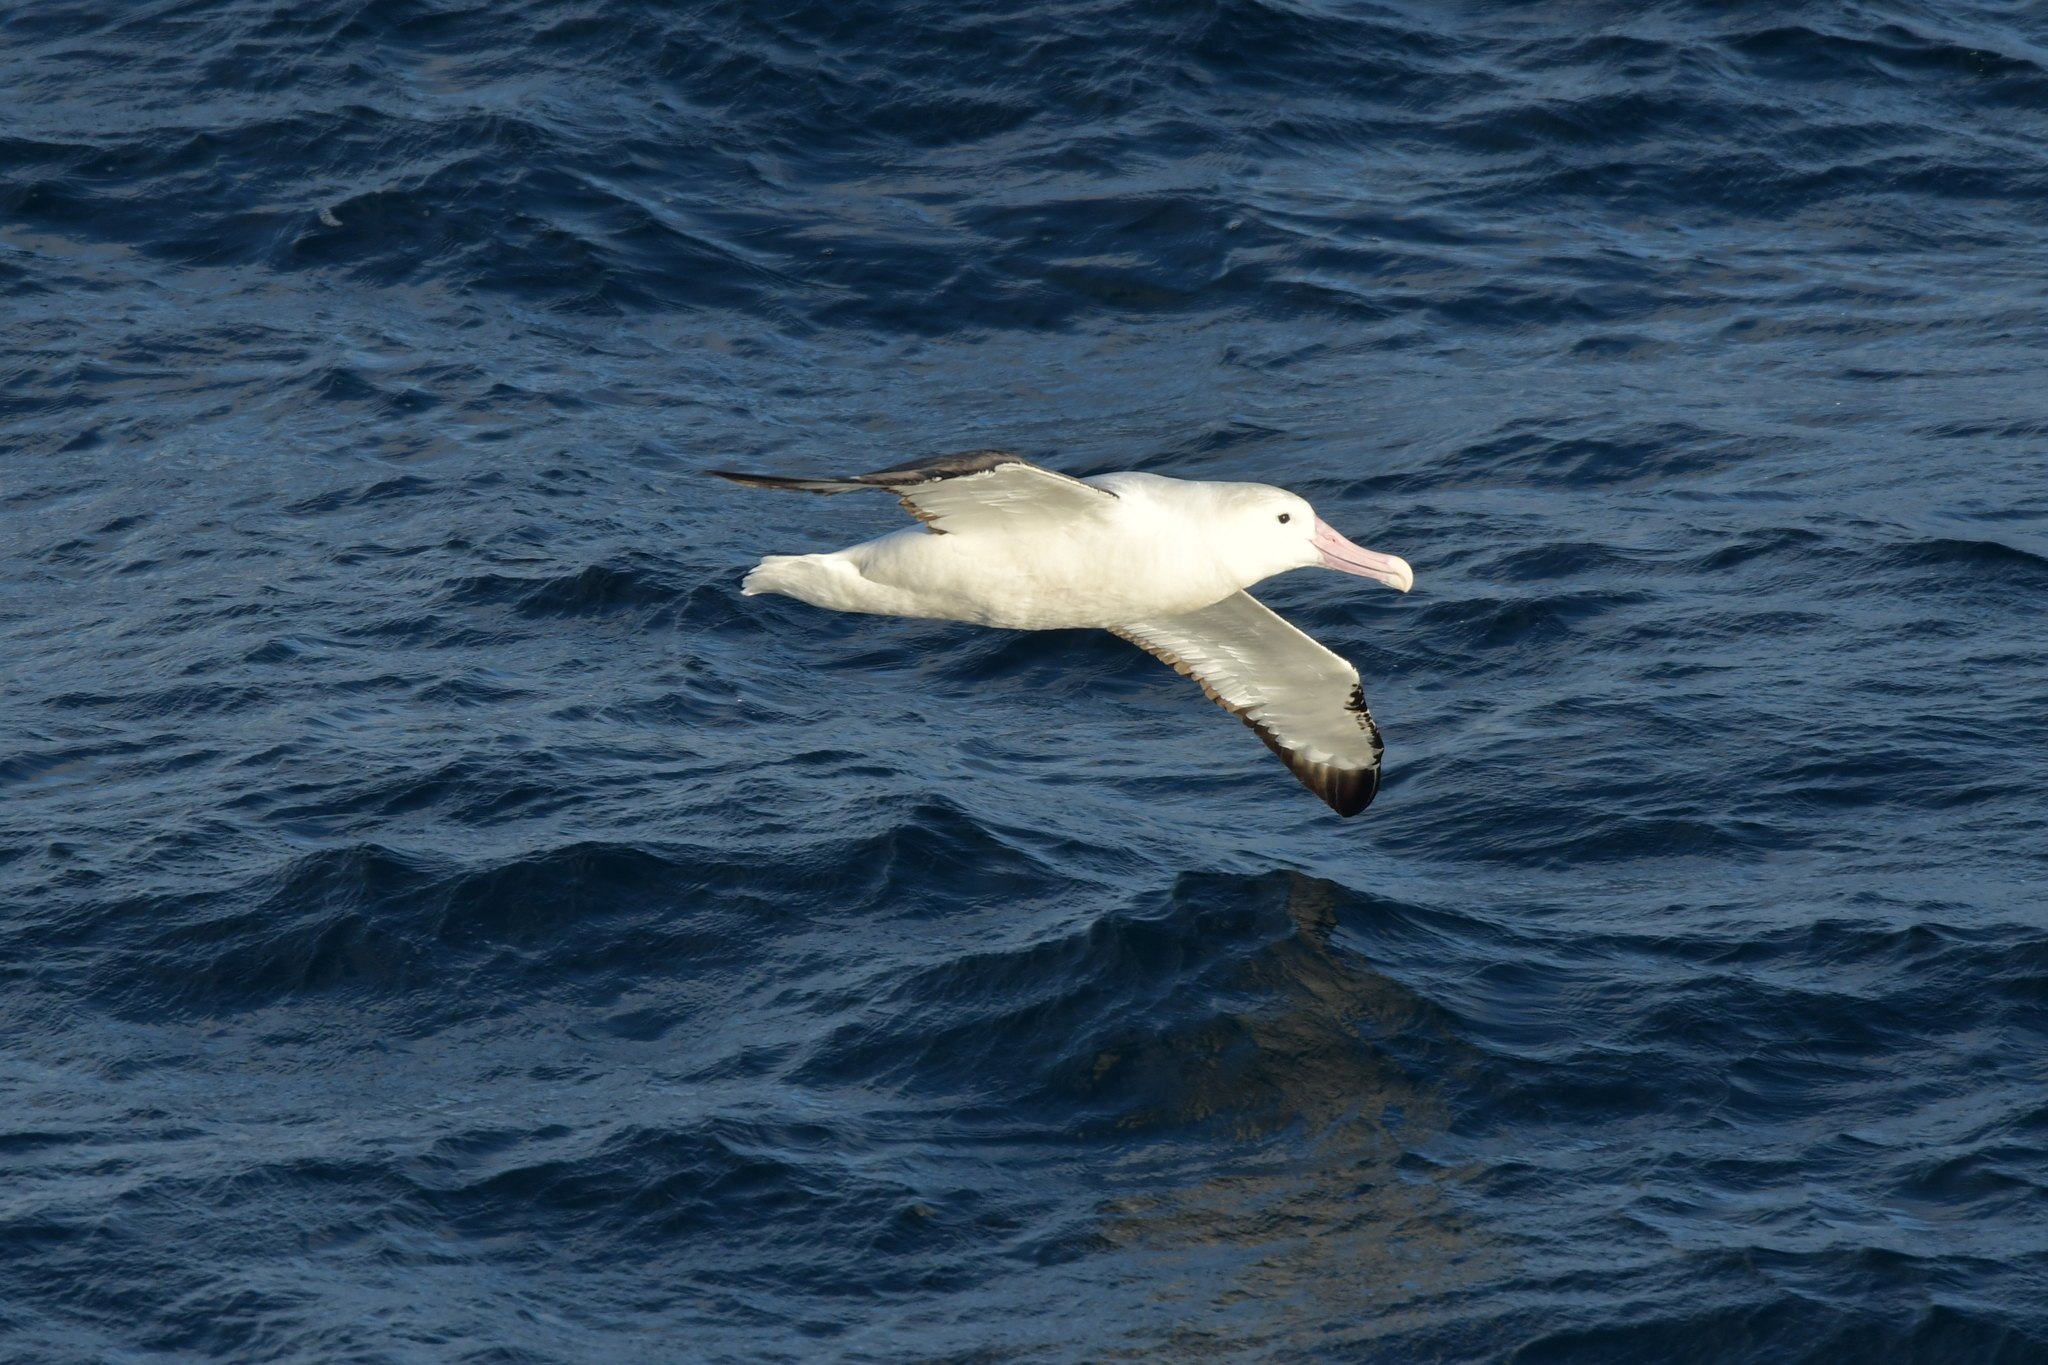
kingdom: Animalia
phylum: Chordata
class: Aves
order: Procellariiformes
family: Diomedeidae
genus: Diomedea
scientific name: Diomedea sanfordi
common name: Northern royal albatross
